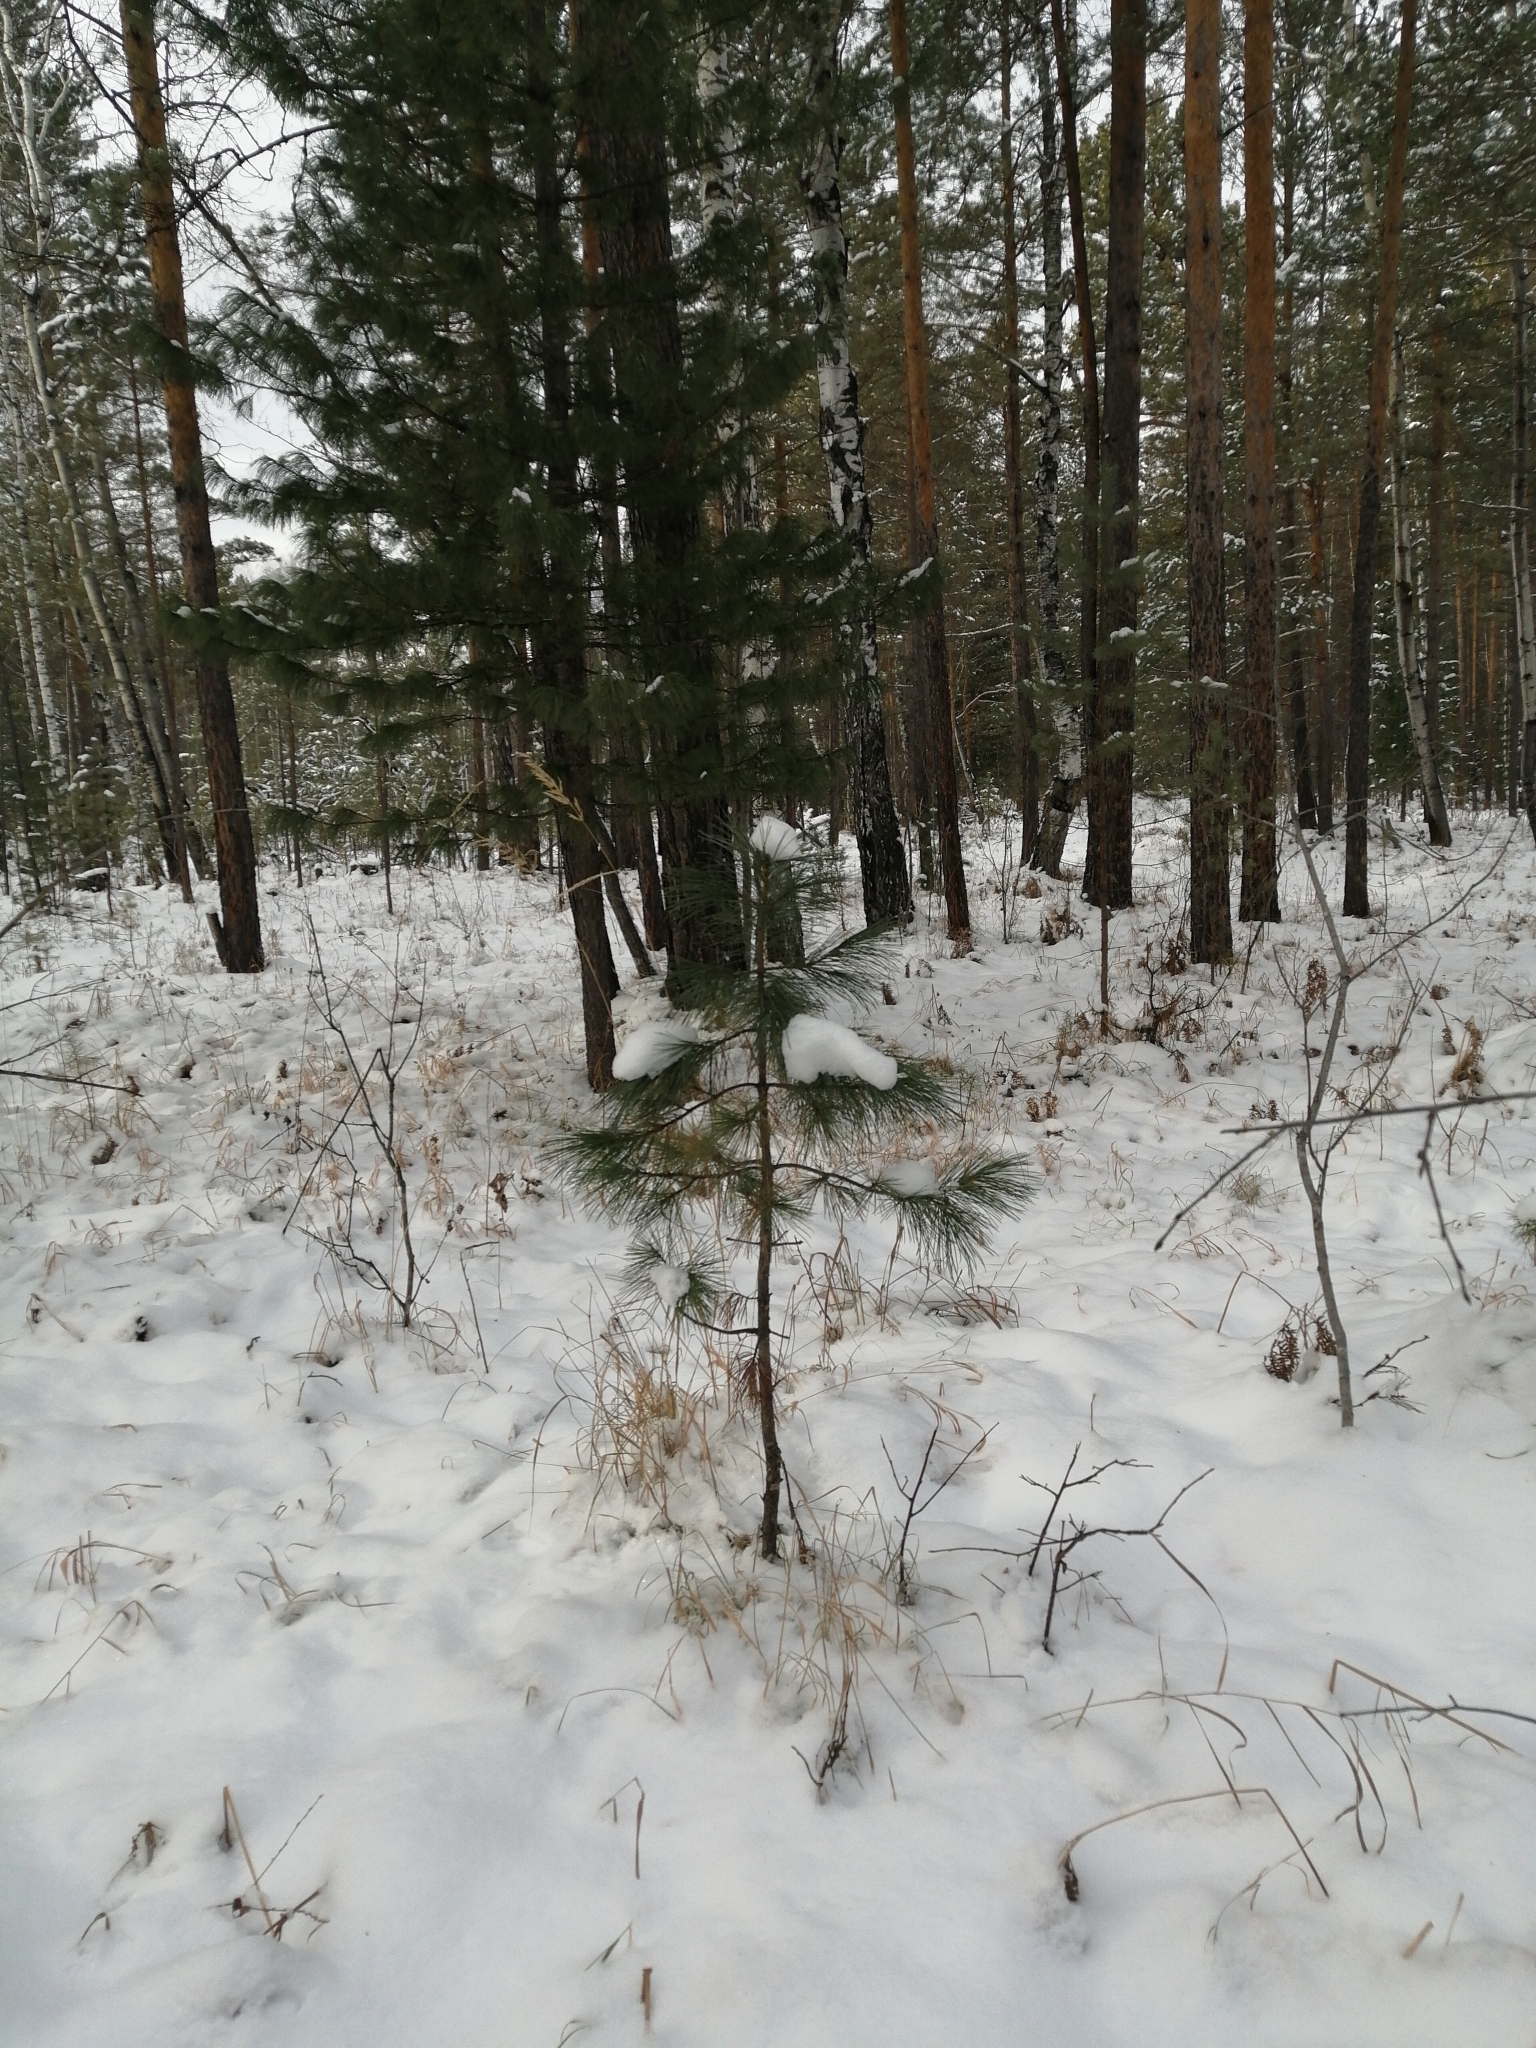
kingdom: Plantae
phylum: Tracheophyta
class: Pinopsida
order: Pinales
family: Pinaceae
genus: Pinus
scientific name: Pinus sibirica
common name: Siberian pine
